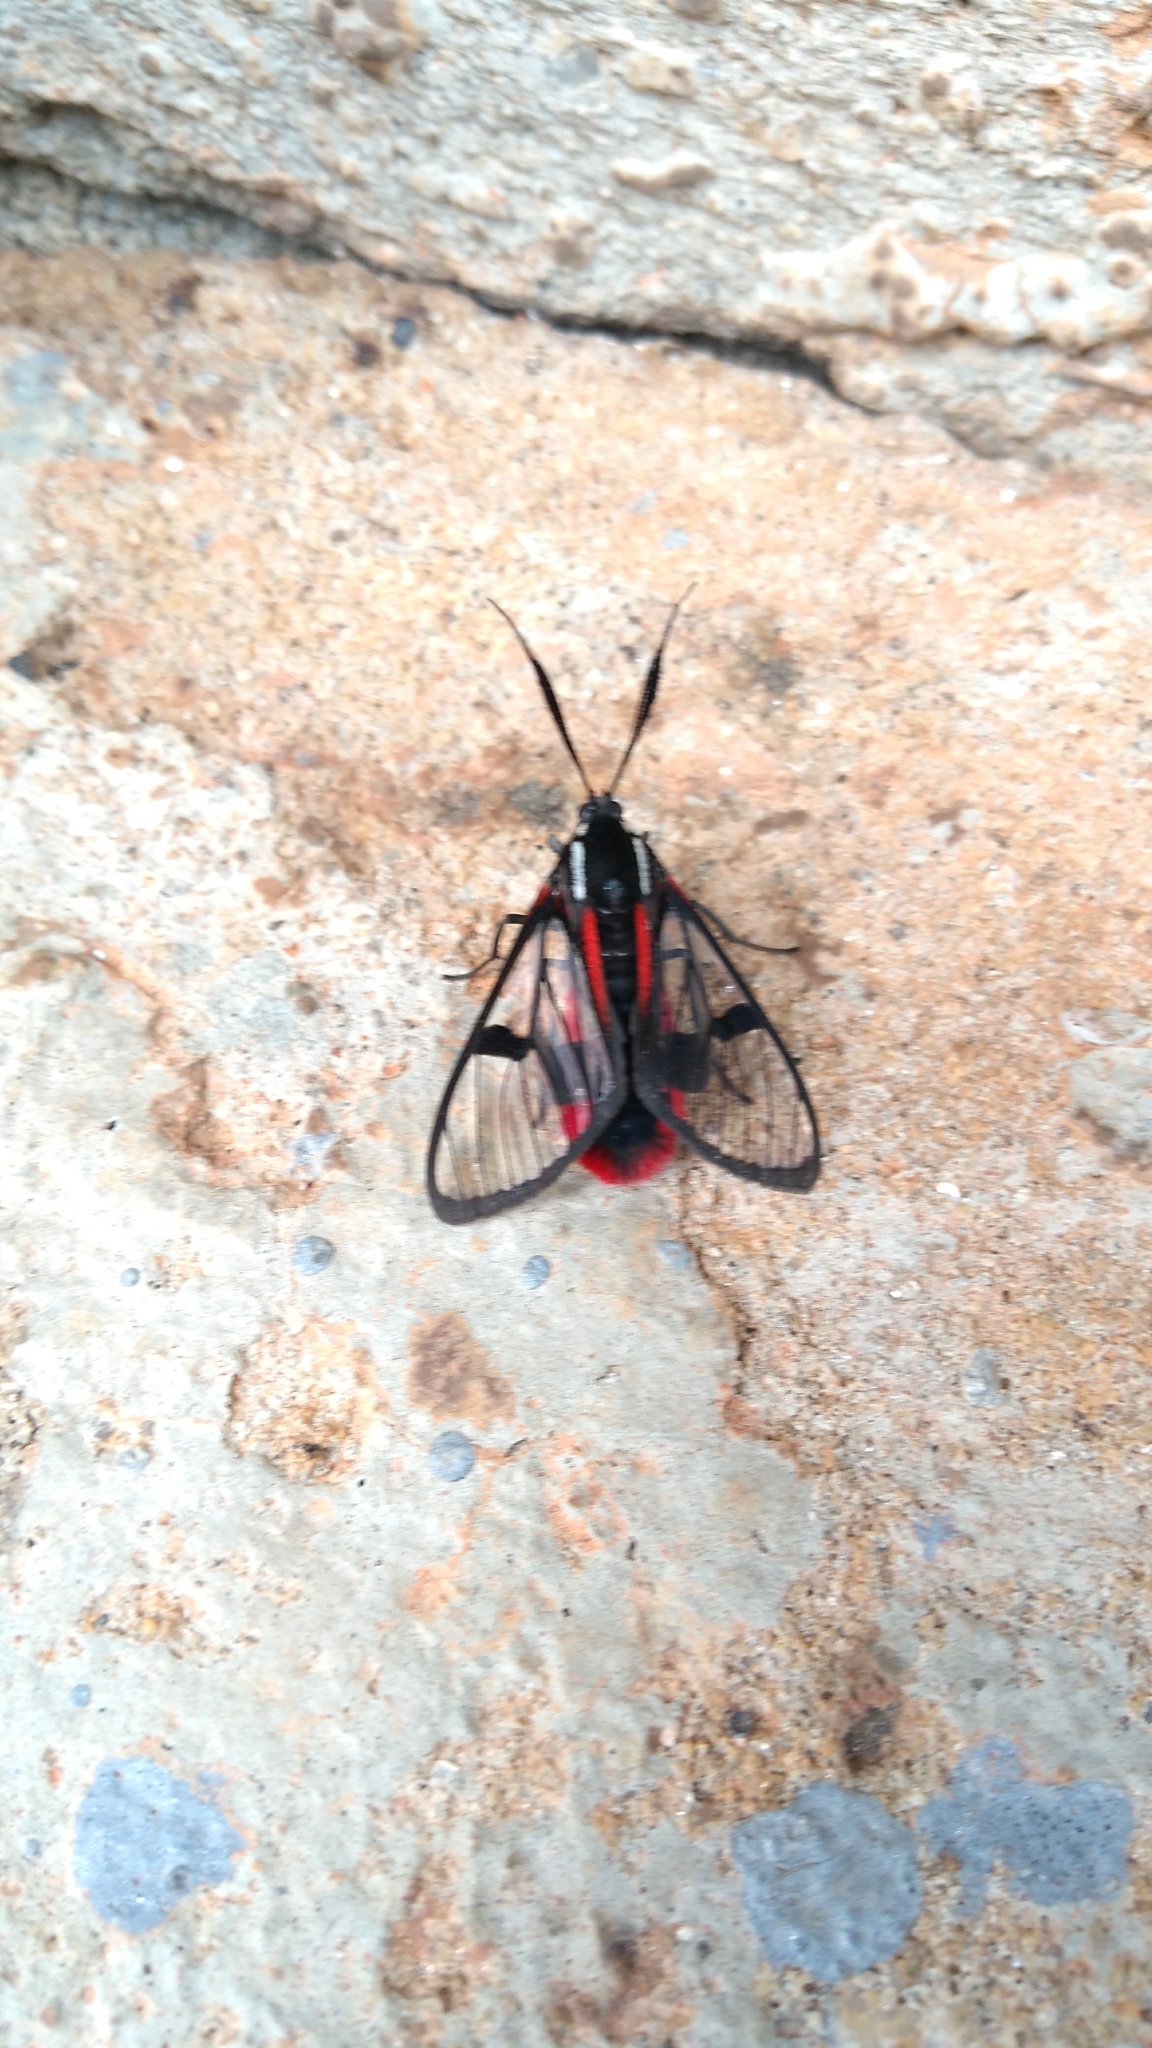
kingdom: Animalia
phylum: Arthropoda
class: Insecta
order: Lepidoptera
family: Erebidae
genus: Dinia
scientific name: Dinia mena
